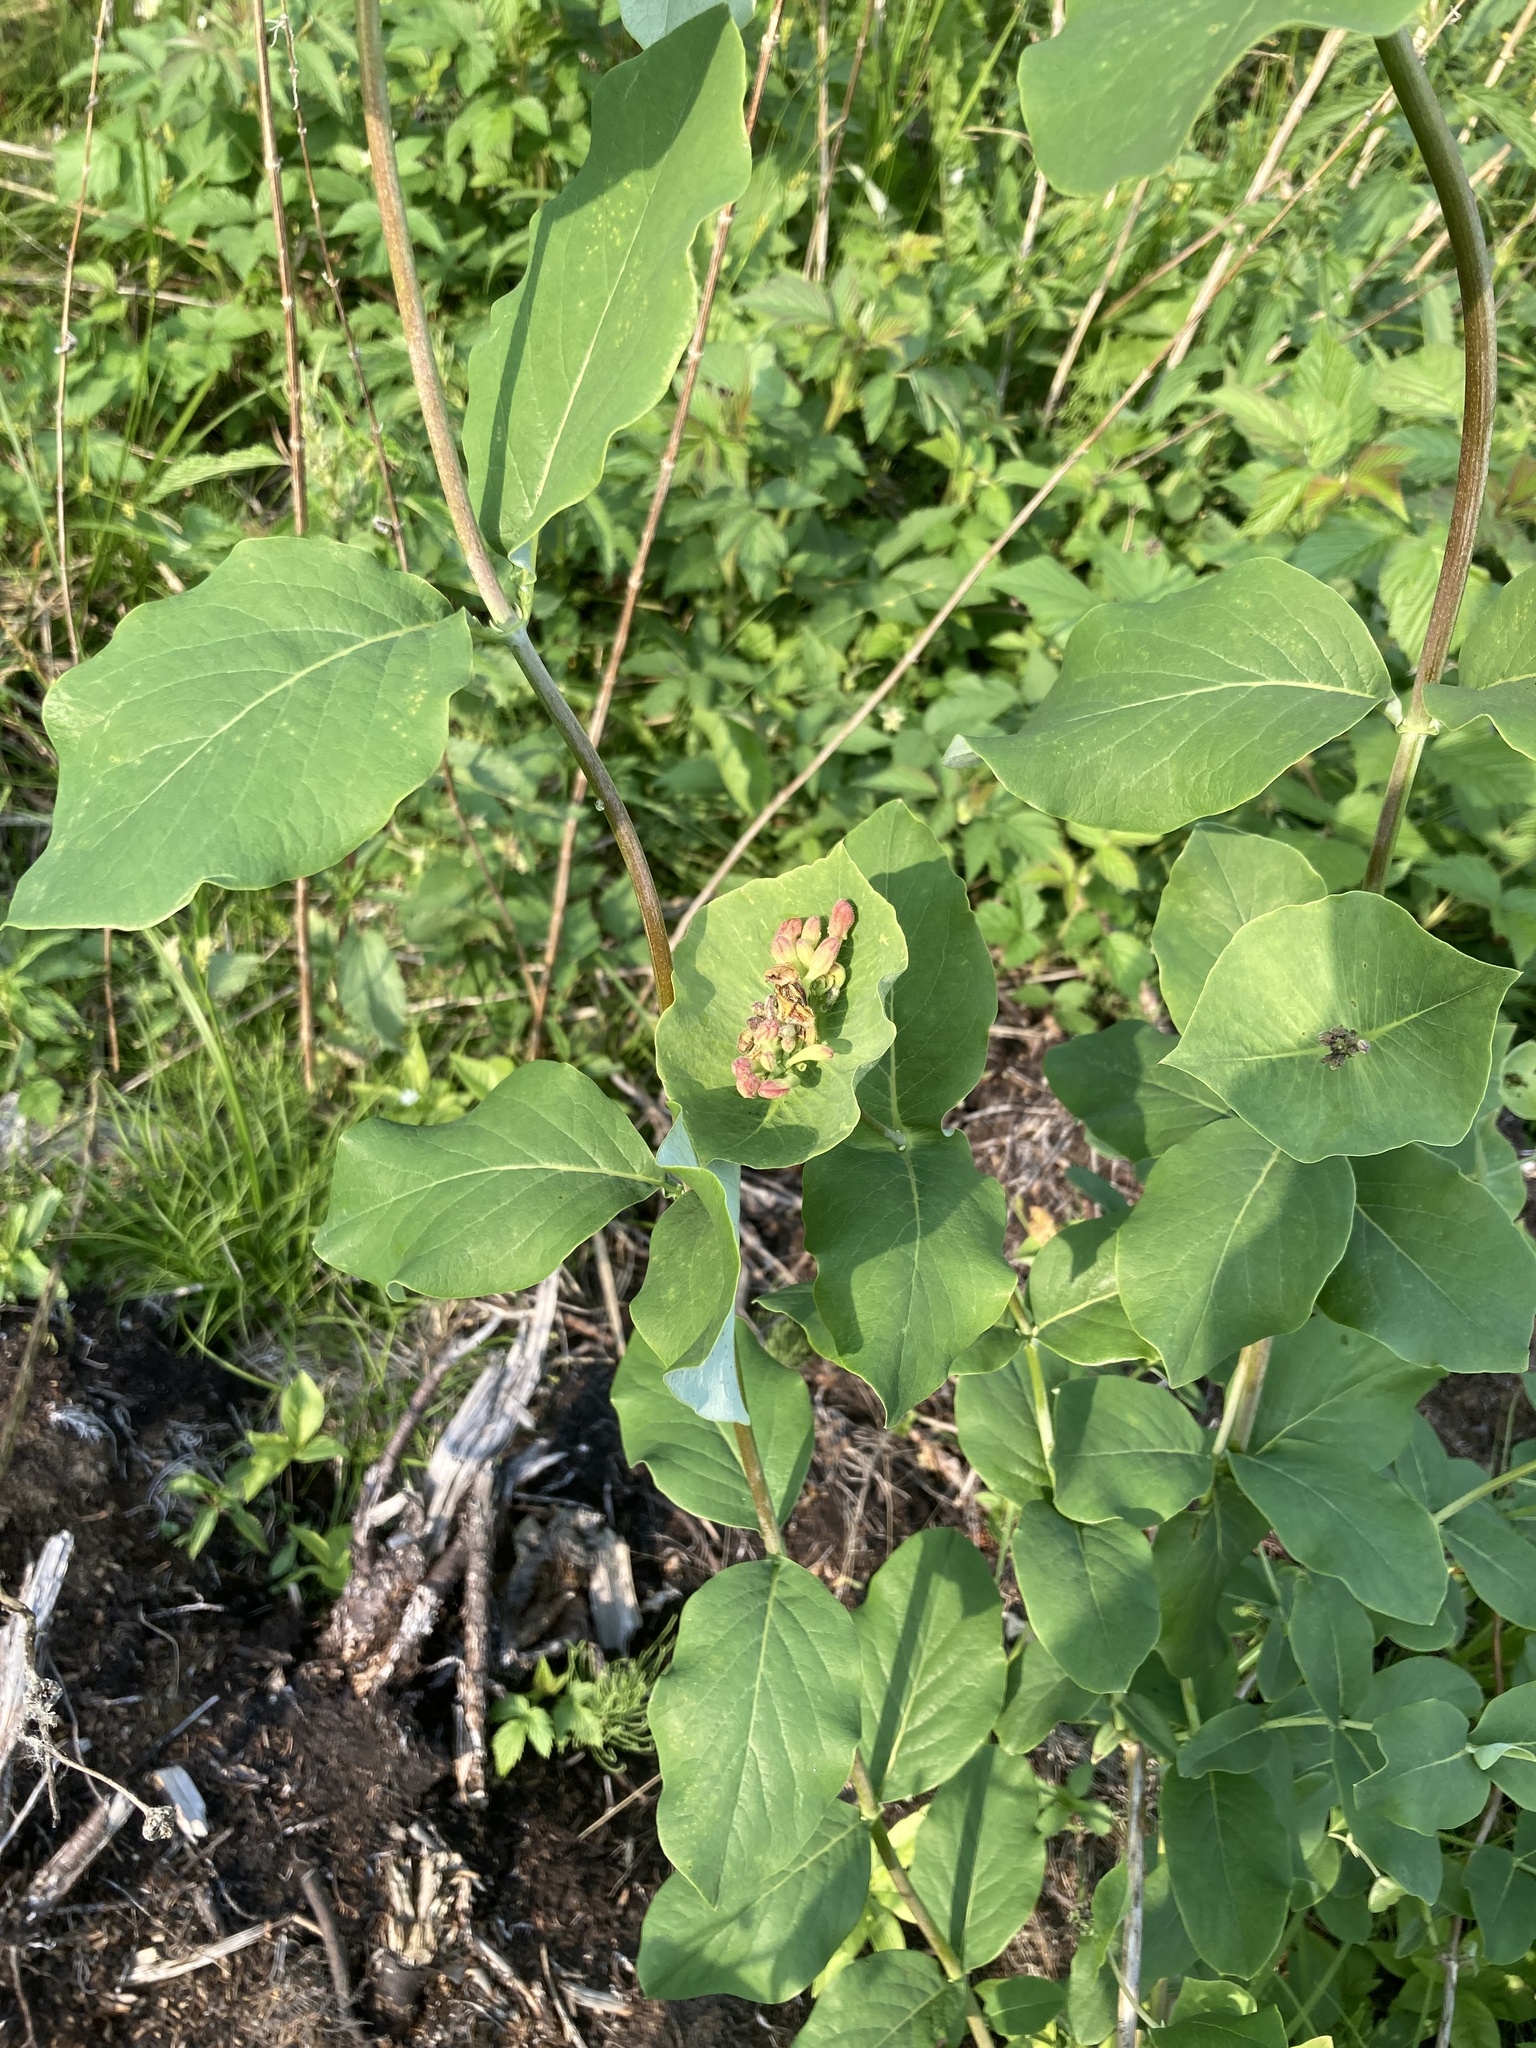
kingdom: Plantae
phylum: Tracheophyta
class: Magnoliopsida
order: Dipsacales
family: Caprifoliaceae
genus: Lonicera
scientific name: Lonicera dioica
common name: Limber honeysuckle
